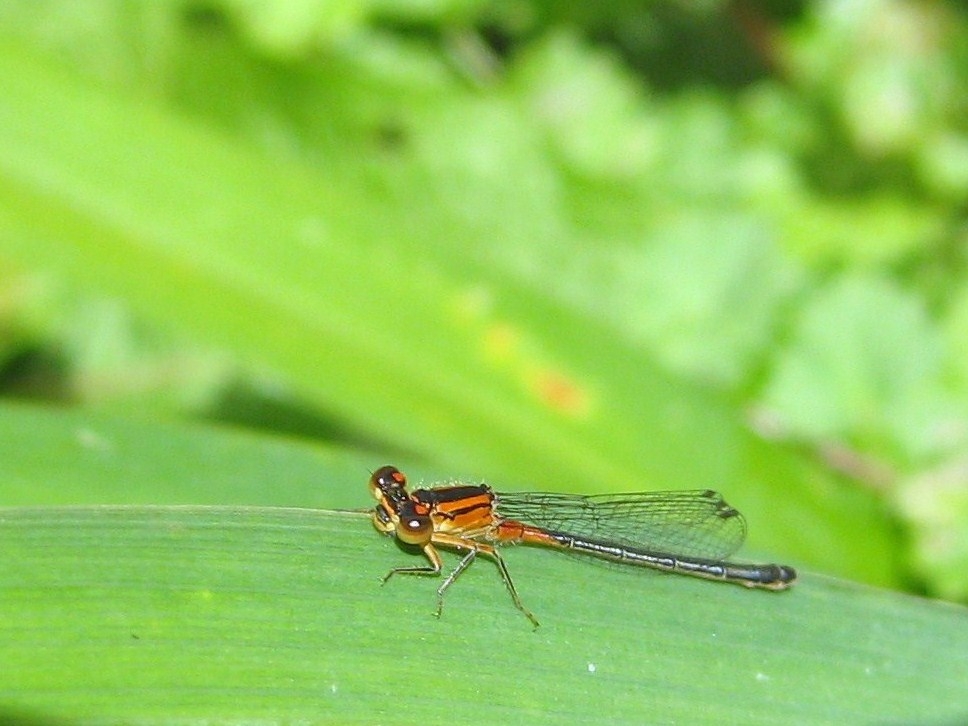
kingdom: Animalia
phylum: Arthropoda
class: Insecta
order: Odonata
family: Coenagrionidae
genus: Ischnura
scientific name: Ischnura verticalis
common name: Eastern forktail
